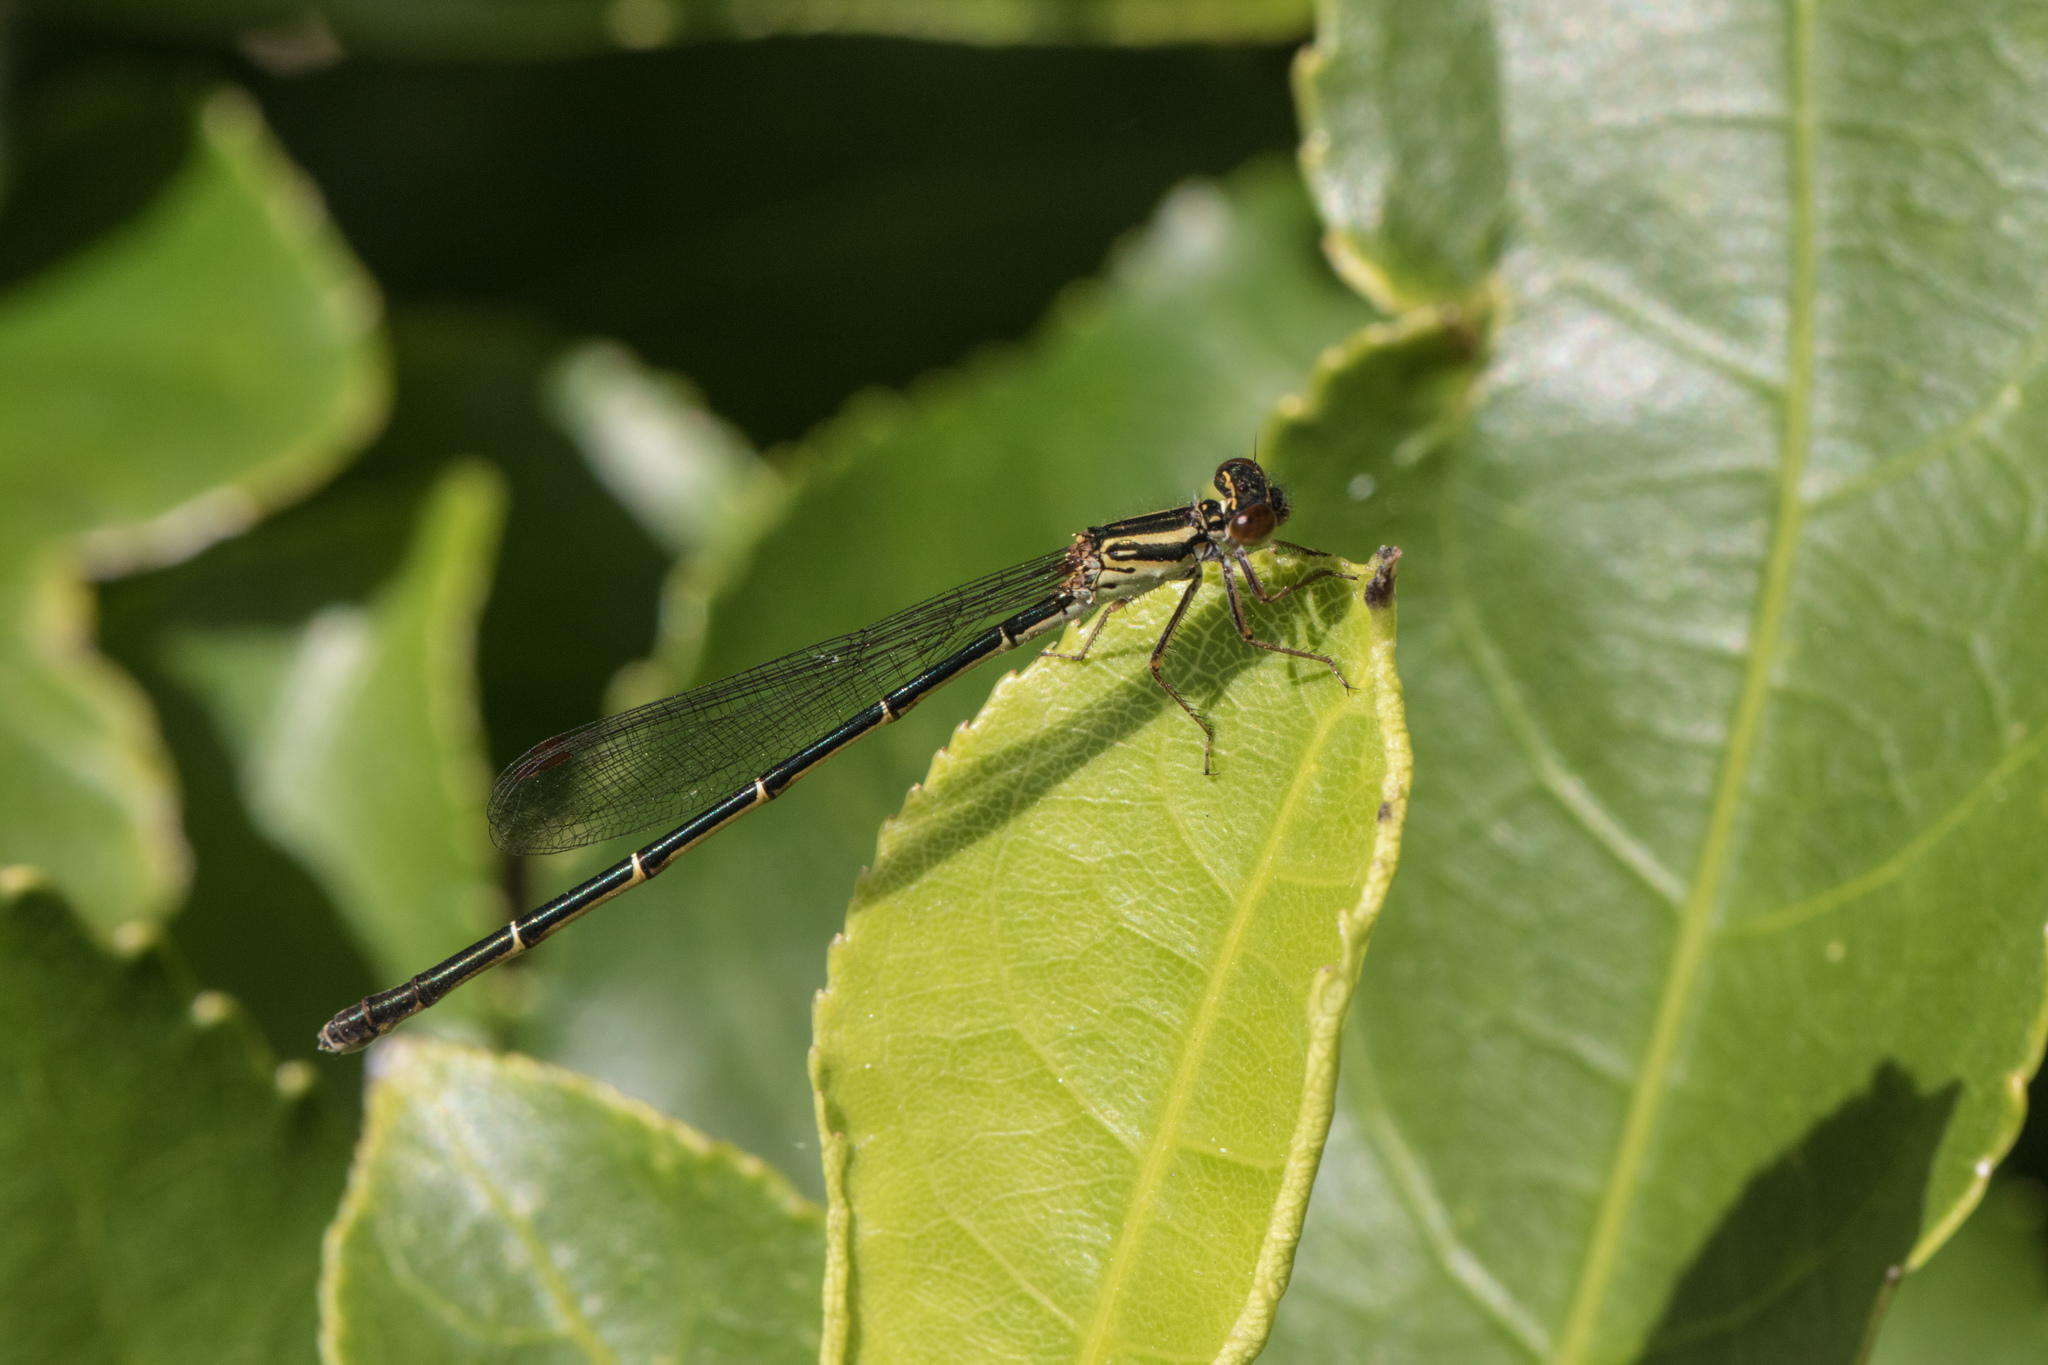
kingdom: Animalia
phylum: Arthropoda
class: Insecta
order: Odonata
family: Coenagrionidae
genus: Xanthocnemis
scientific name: Xanthocnemis zealandica
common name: Common redcoat damselfly
